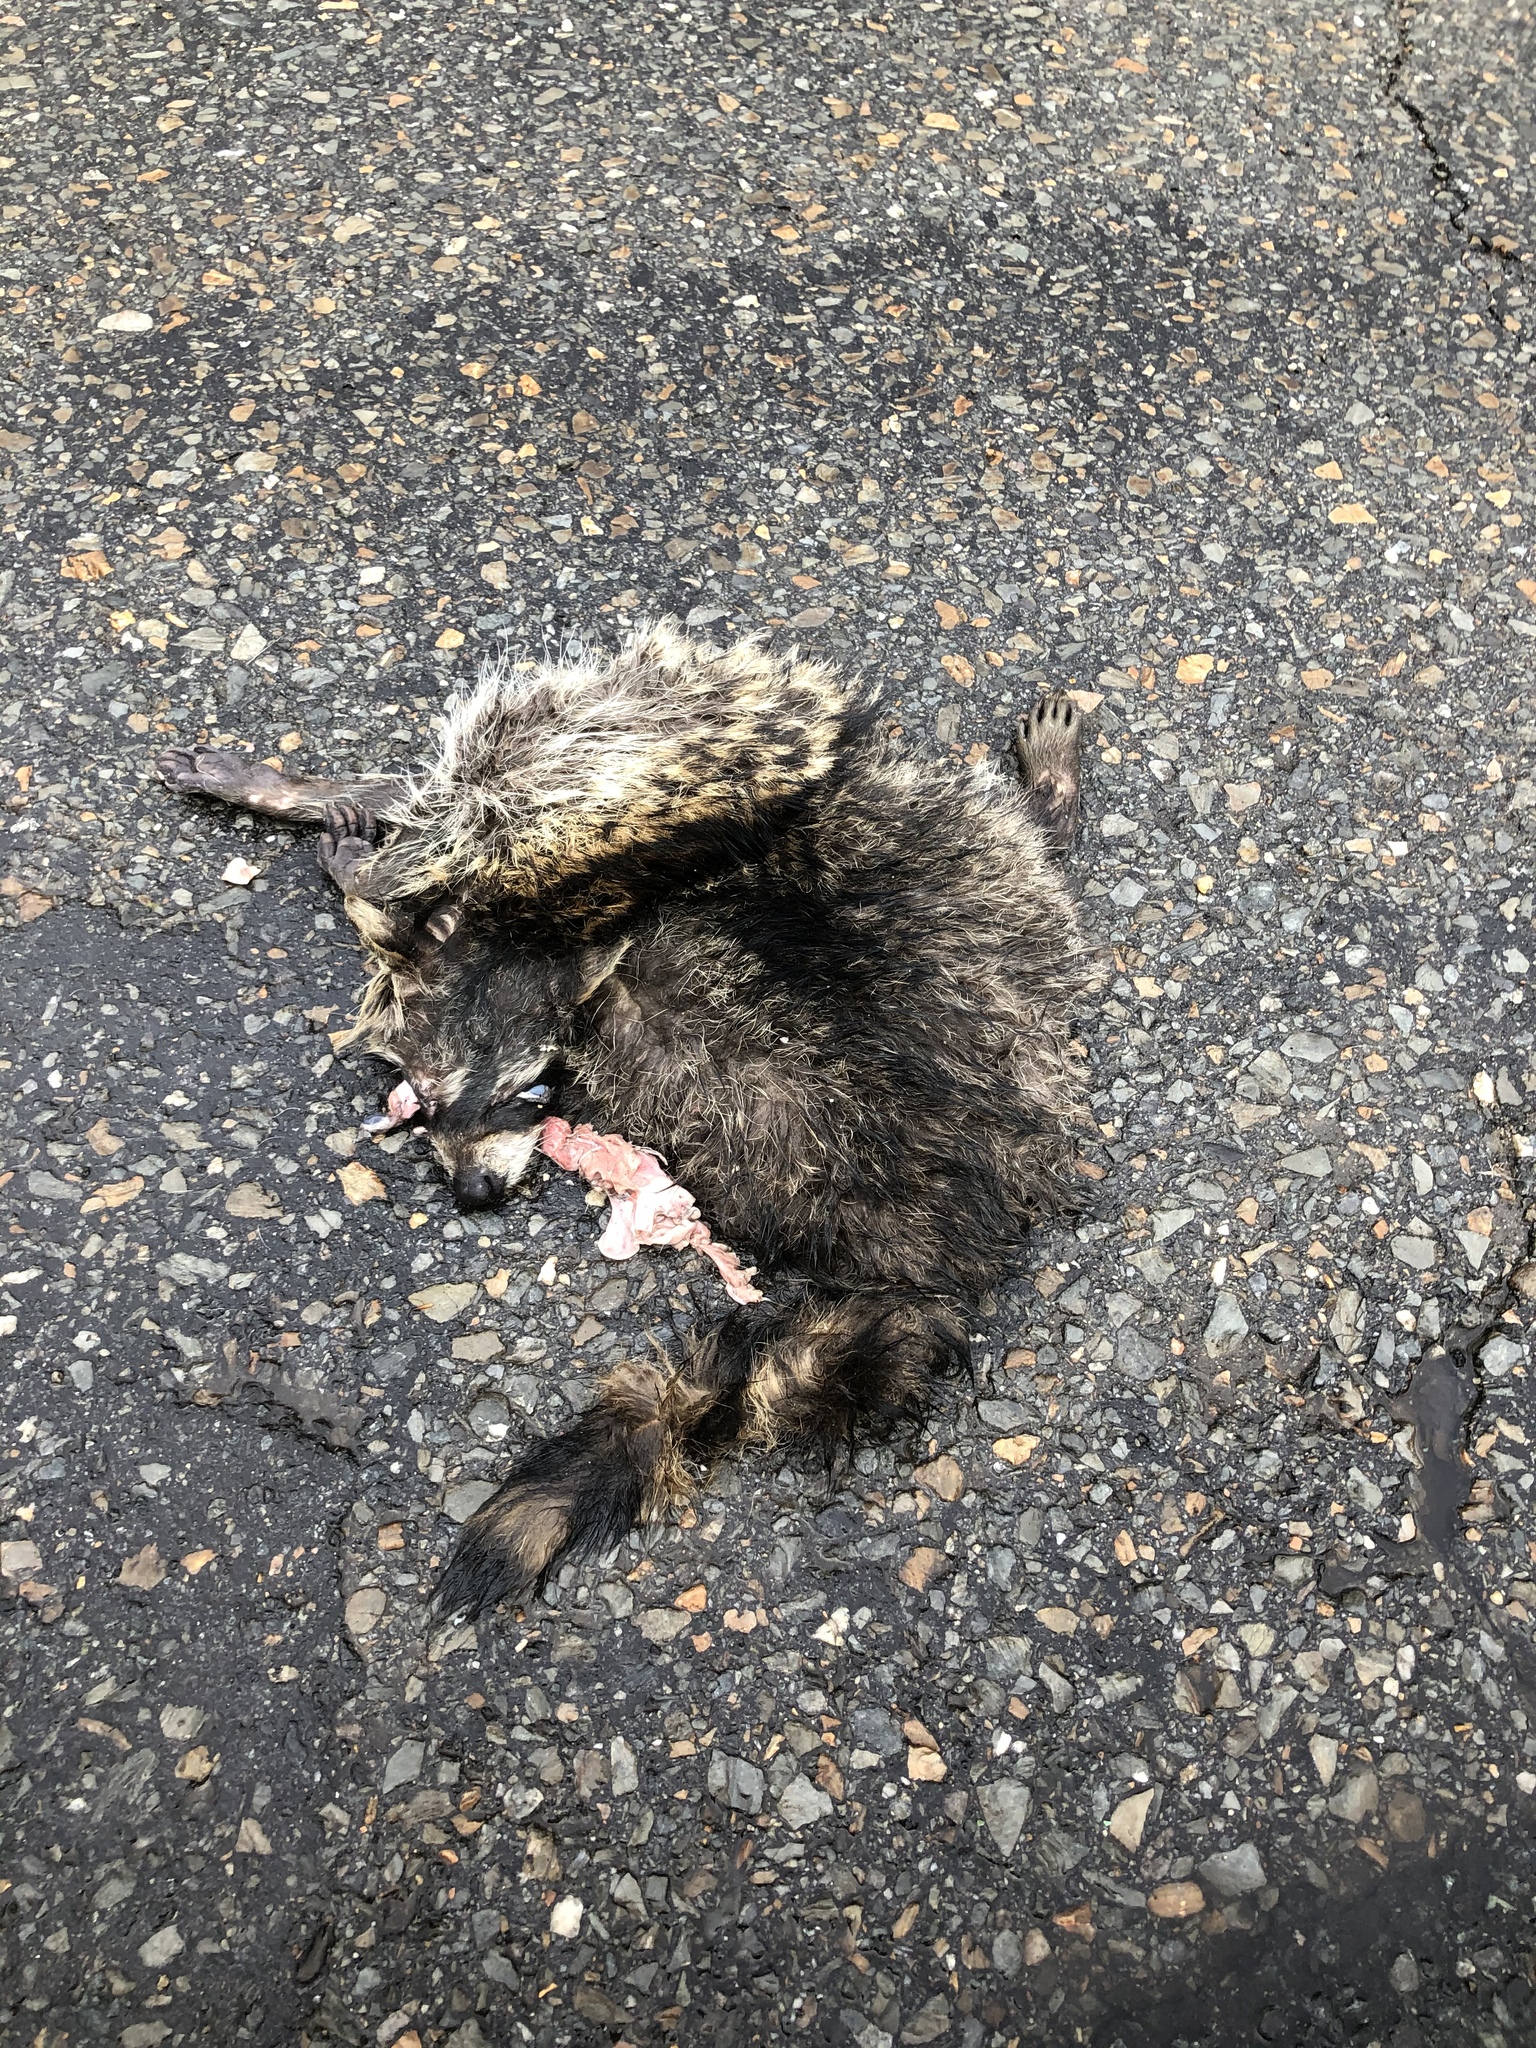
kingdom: Animalia
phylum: Chordata
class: Mammalia
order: Carnivora
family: Procyonidae
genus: Procyon
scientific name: Procyon lotor
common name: Raccoon
